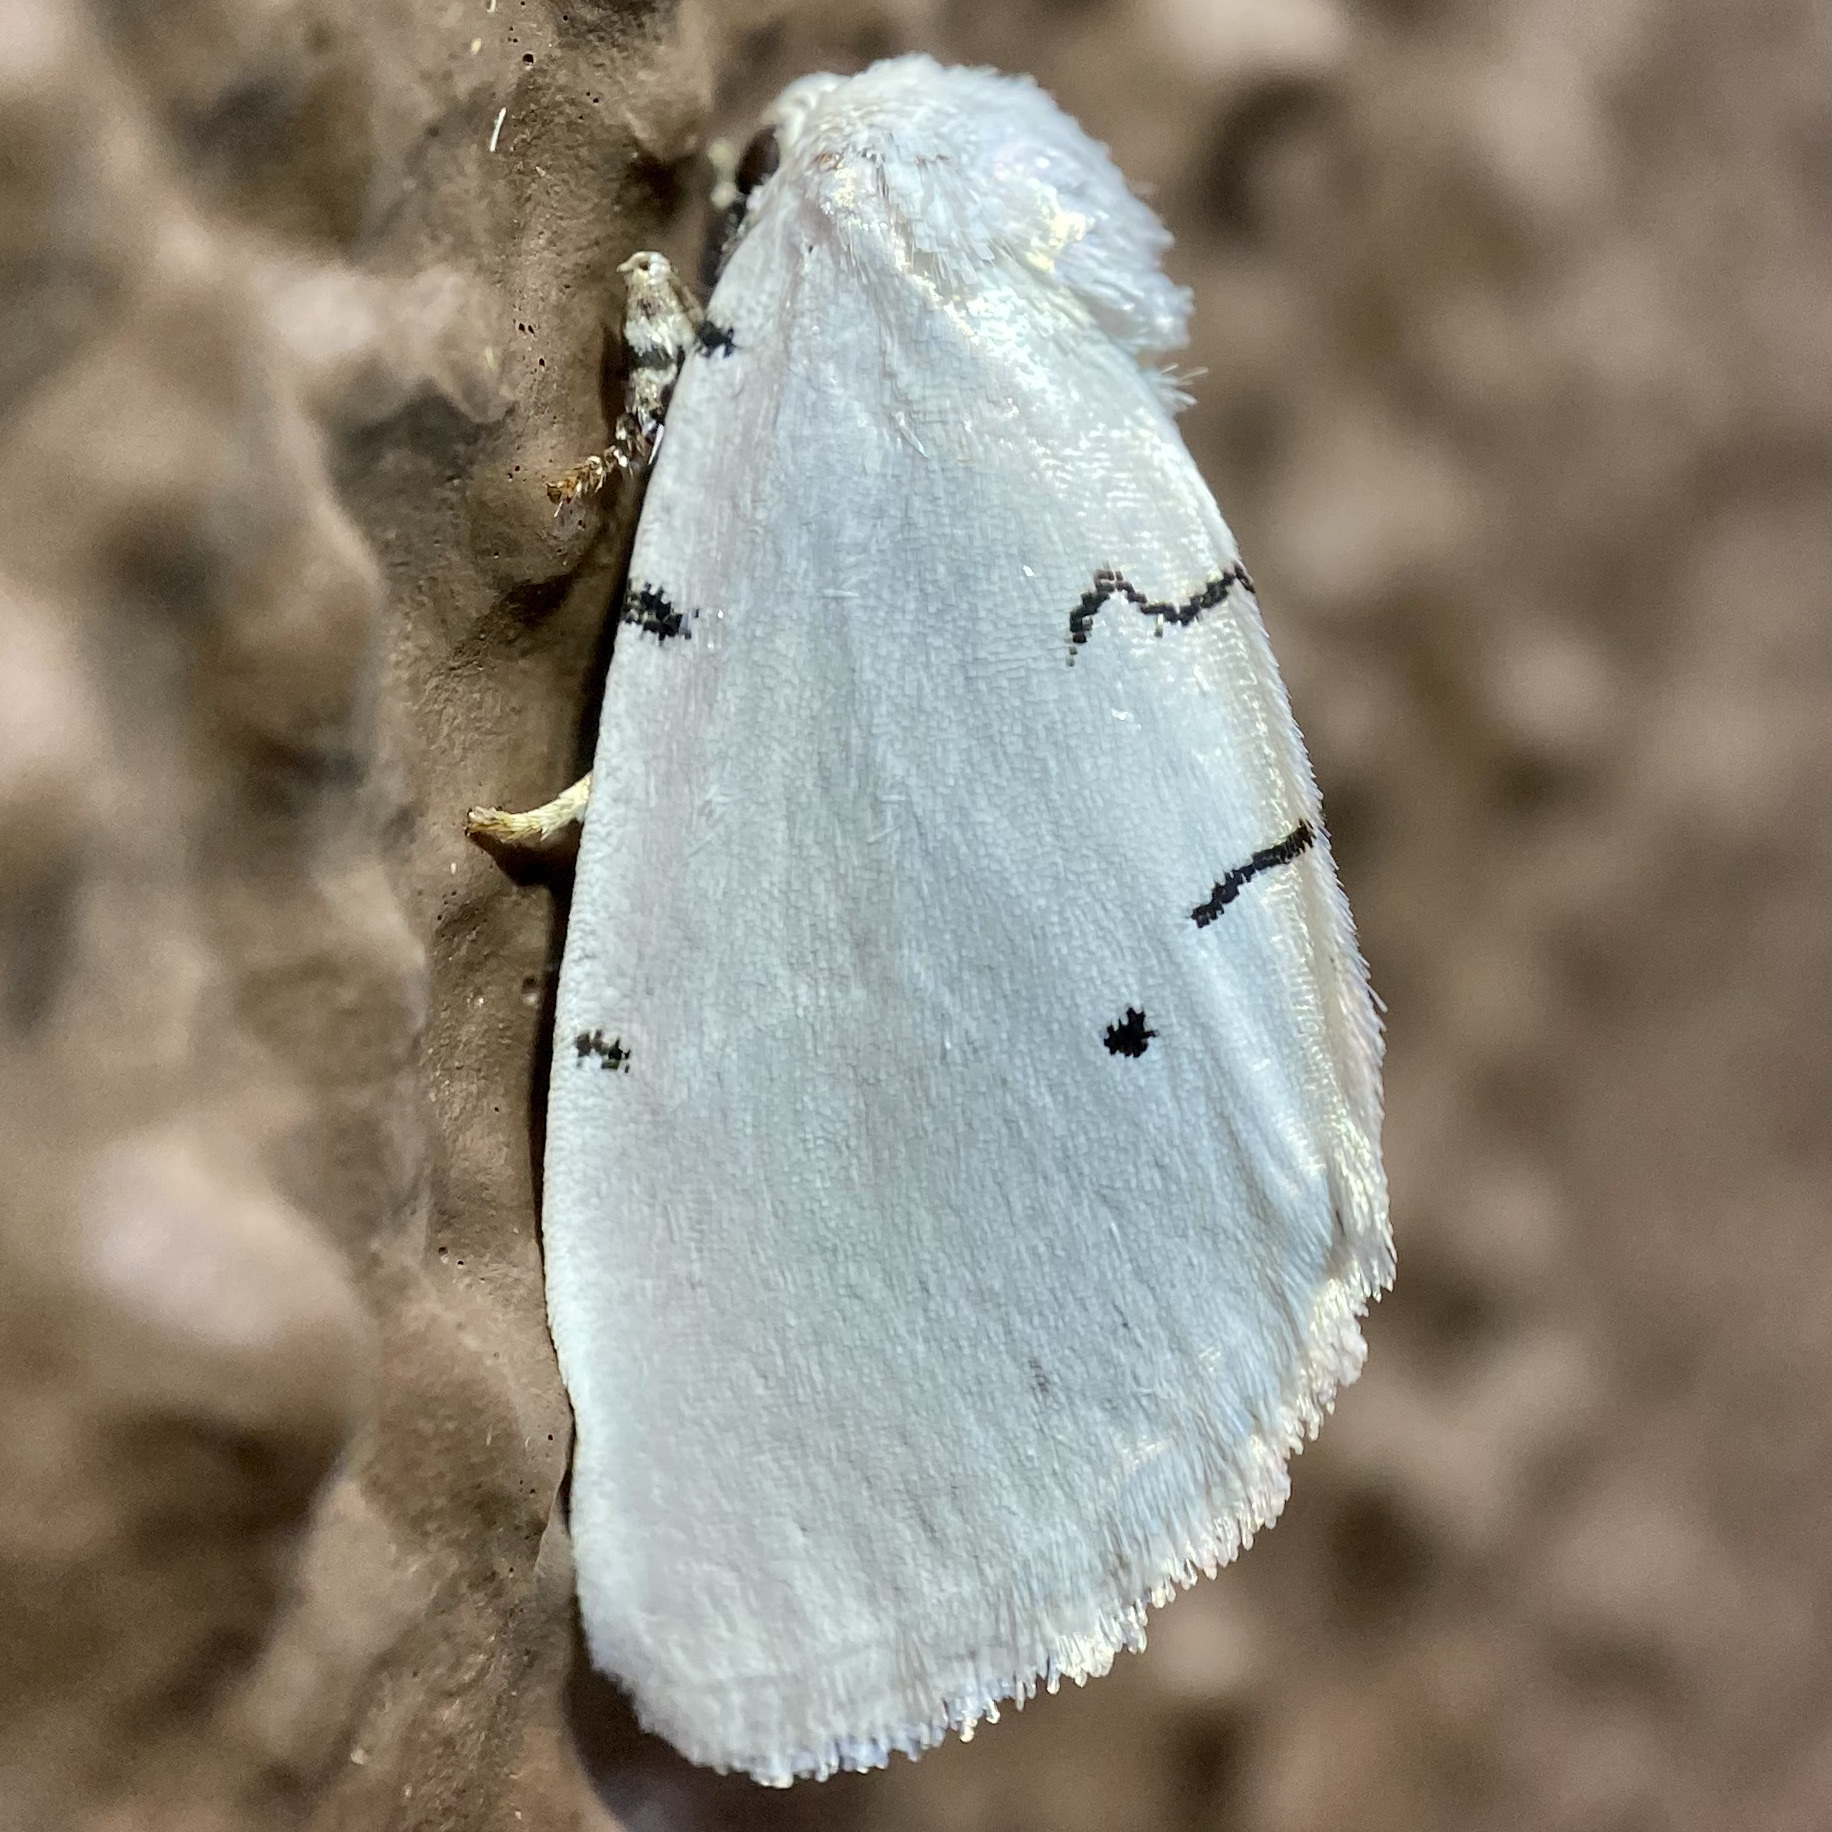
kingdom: Animalia
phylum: Arthropoda
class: Insecta
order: Lepidoptera
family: Noctuidae
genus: Hemioslaria
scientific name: Hemioslaria pima
